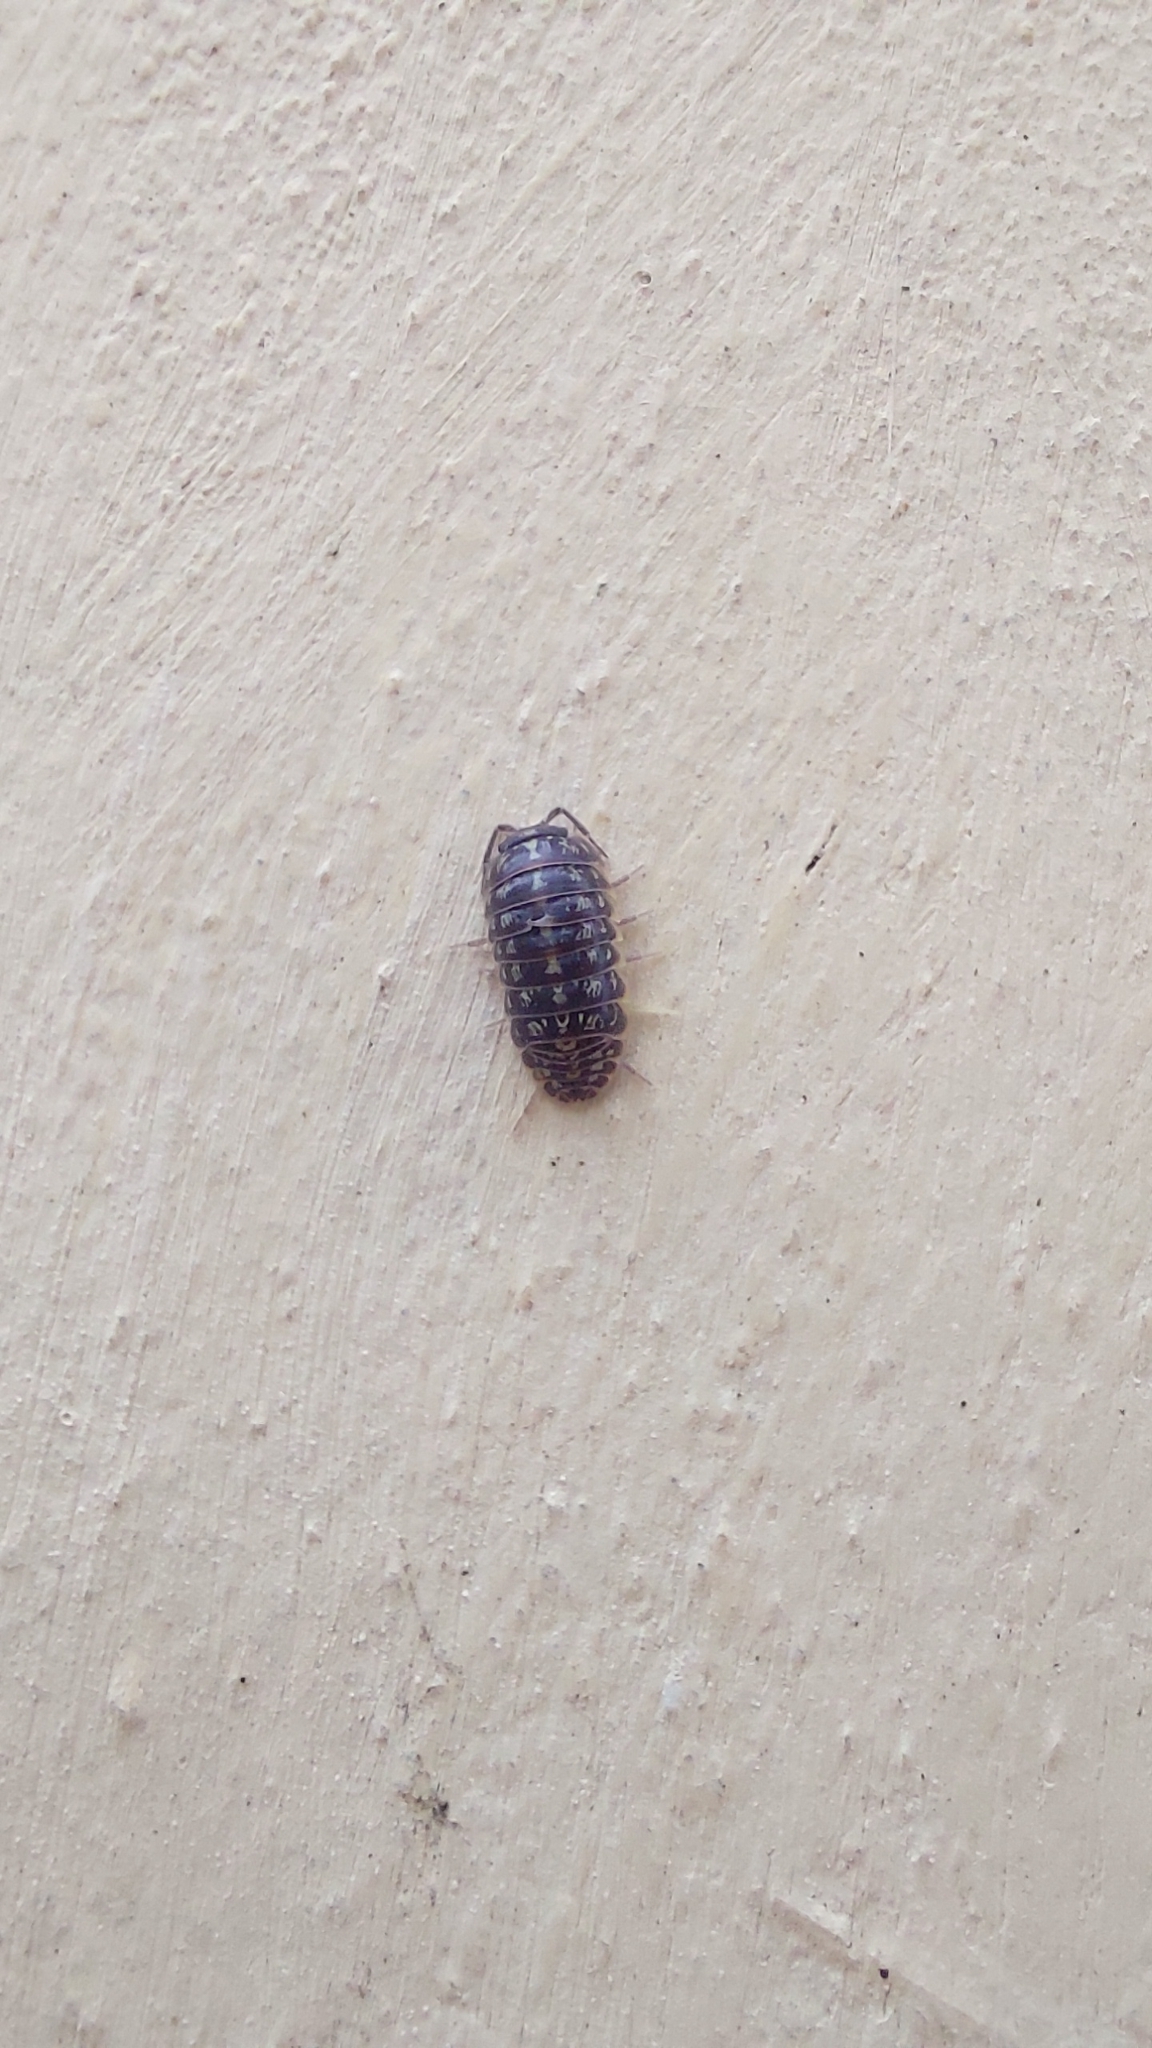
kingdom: Animalia
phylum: Arthropoda
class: Malacostraca
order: Isopoda
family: Armadillidiidae
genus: Armadillidium
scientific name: Armadillidium versicolor
